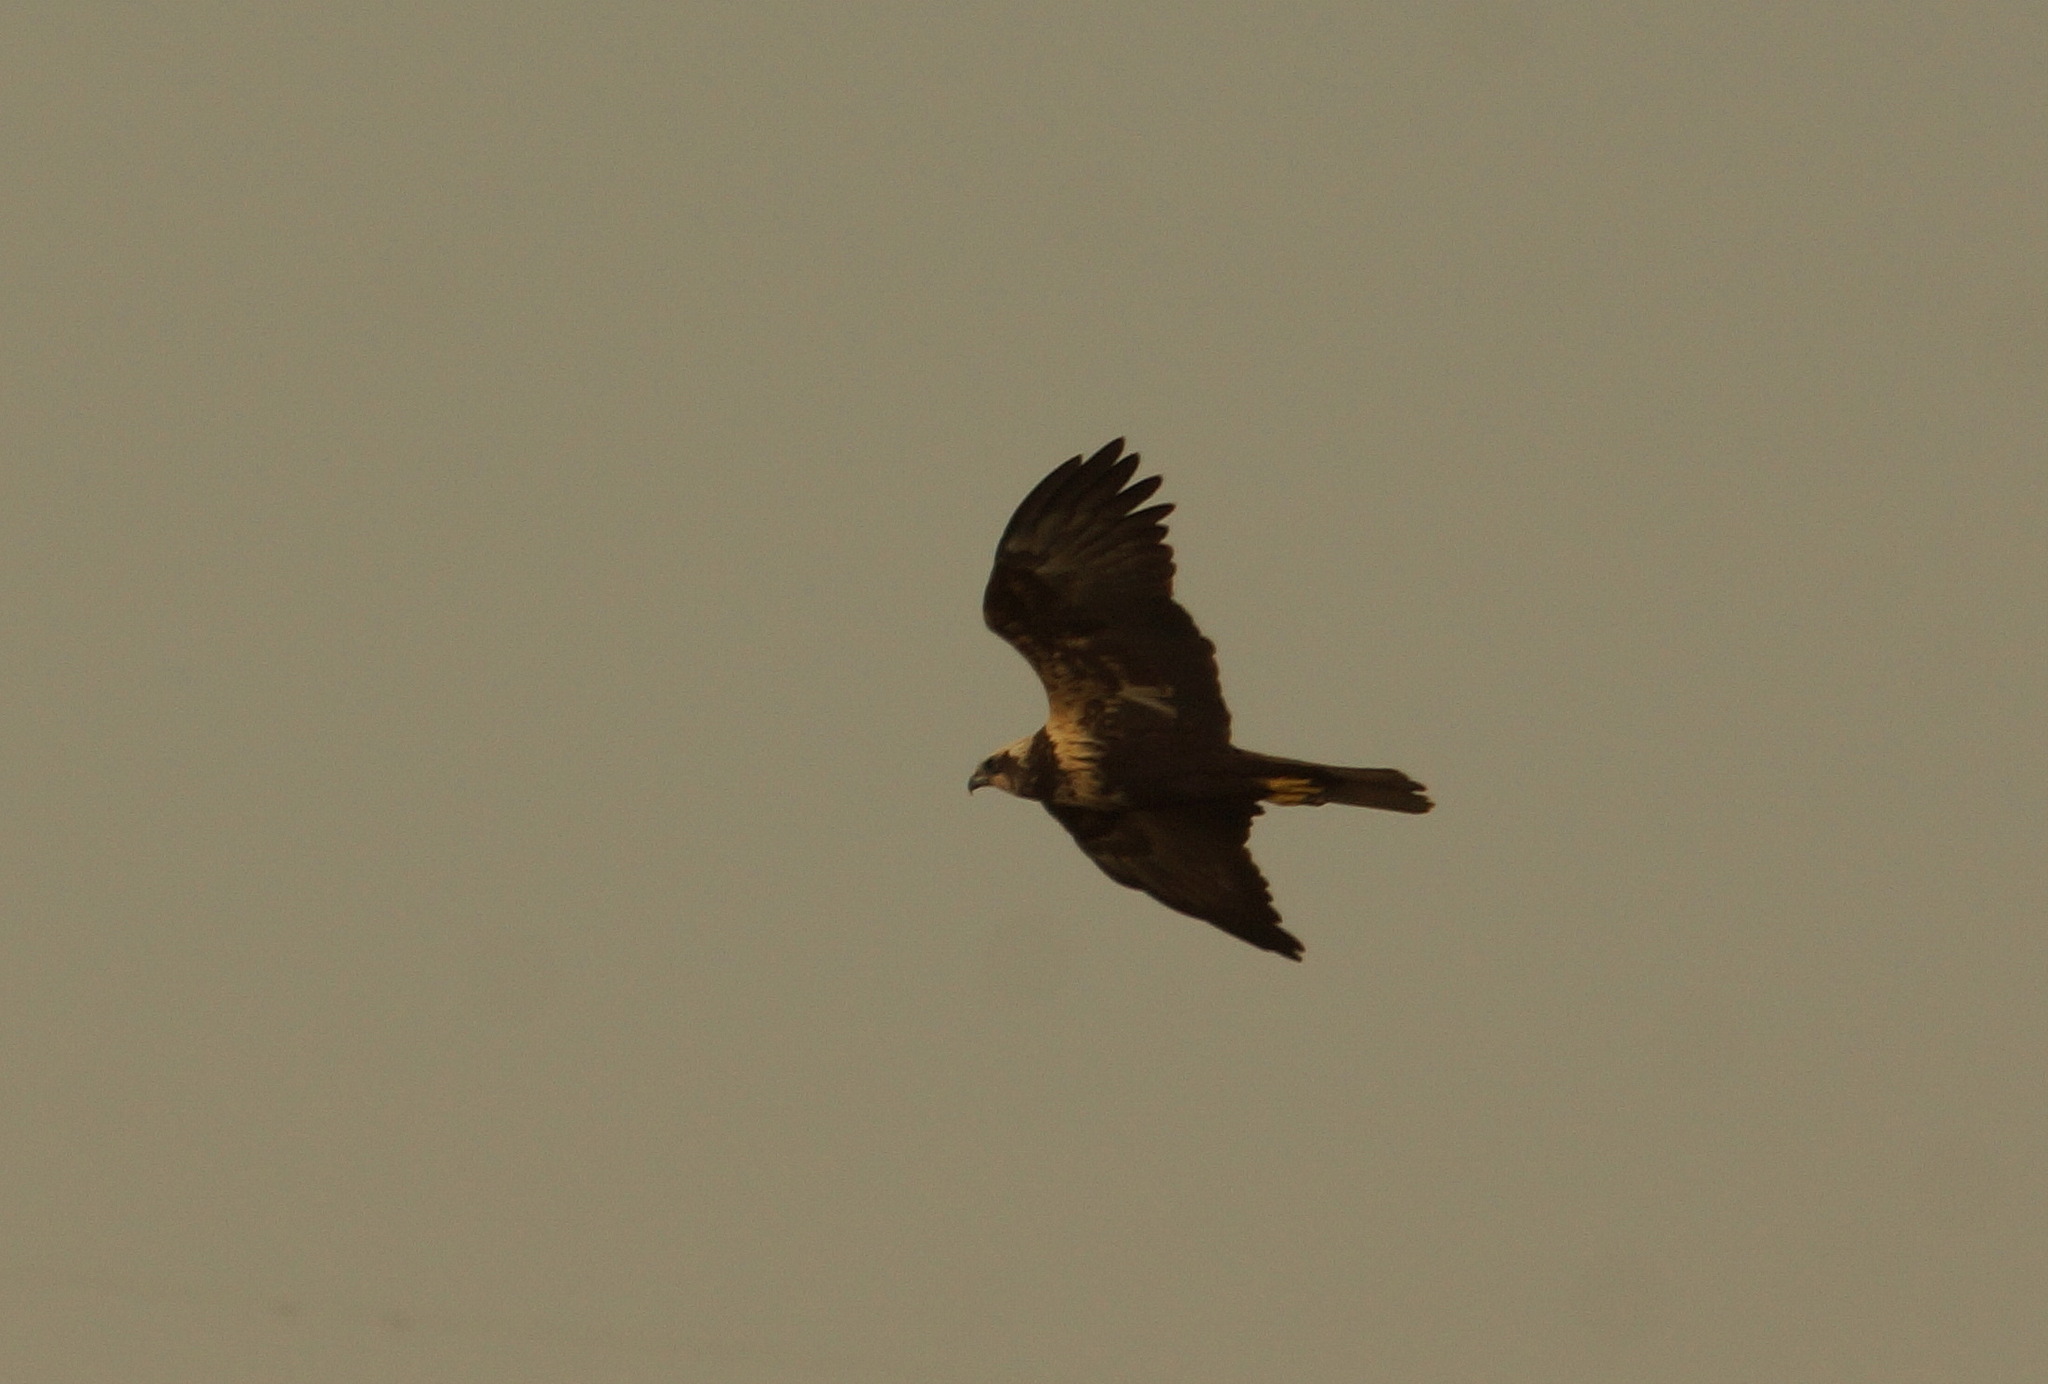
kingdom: Animalia
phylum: Chordata
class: Aves
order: Accipitriformes
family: Accipitridae
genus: Circus
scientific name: Circus aeruginosus
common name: Western marsh harrier
